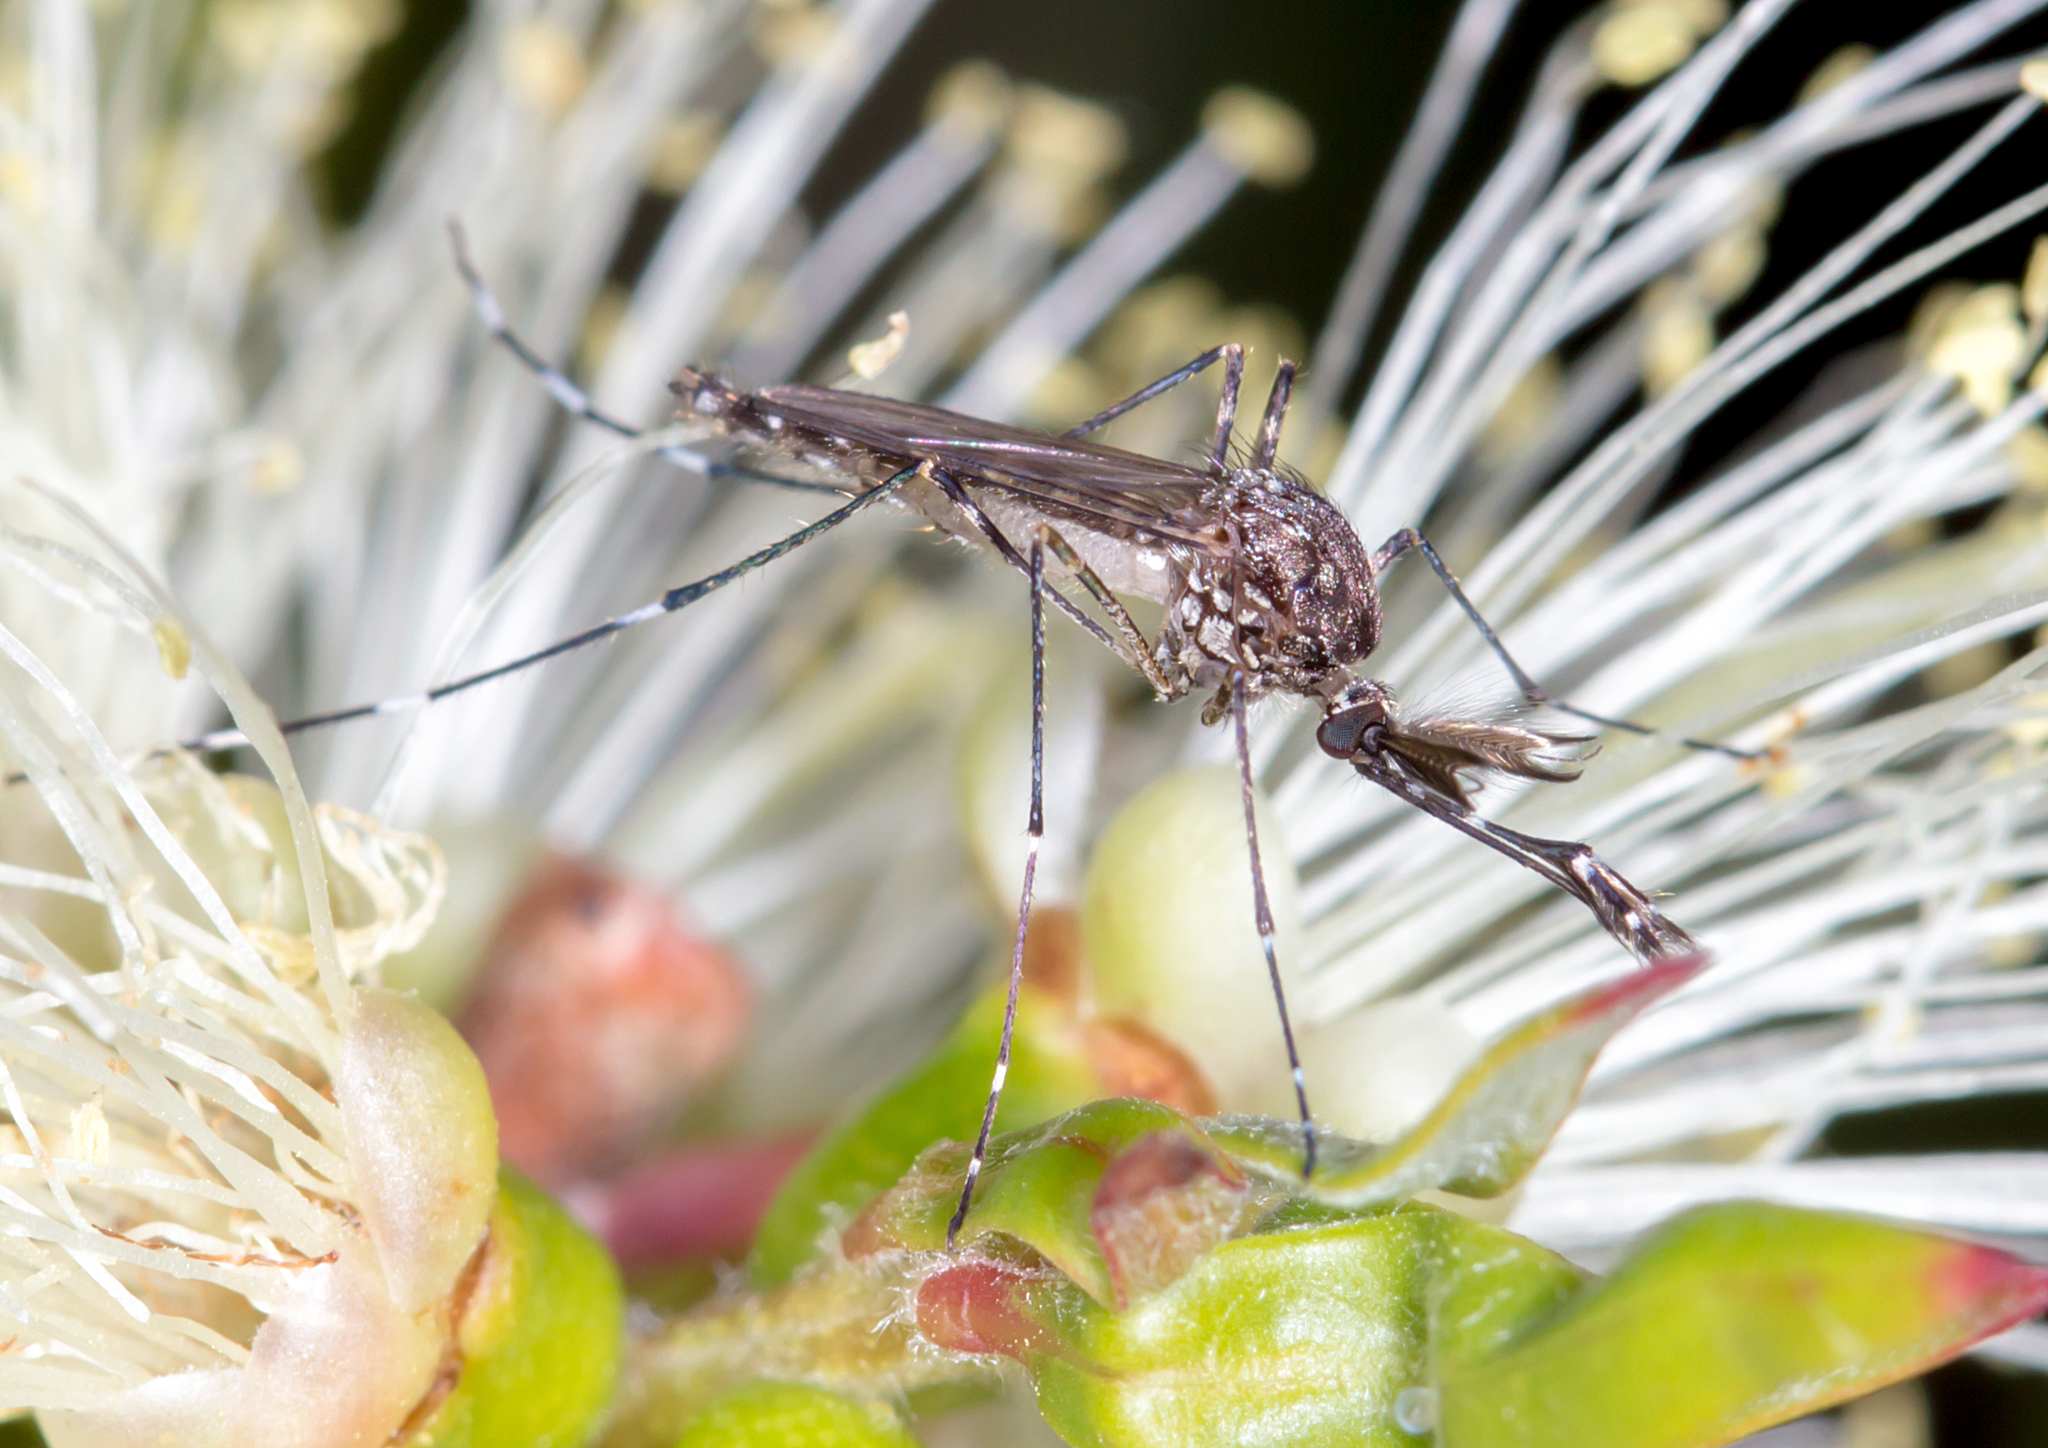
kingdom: Animalia
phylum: Arthropoda
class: Insecta
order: Diptera
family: Culicidae
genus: Aedes
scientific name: Aedes alboannulatus
